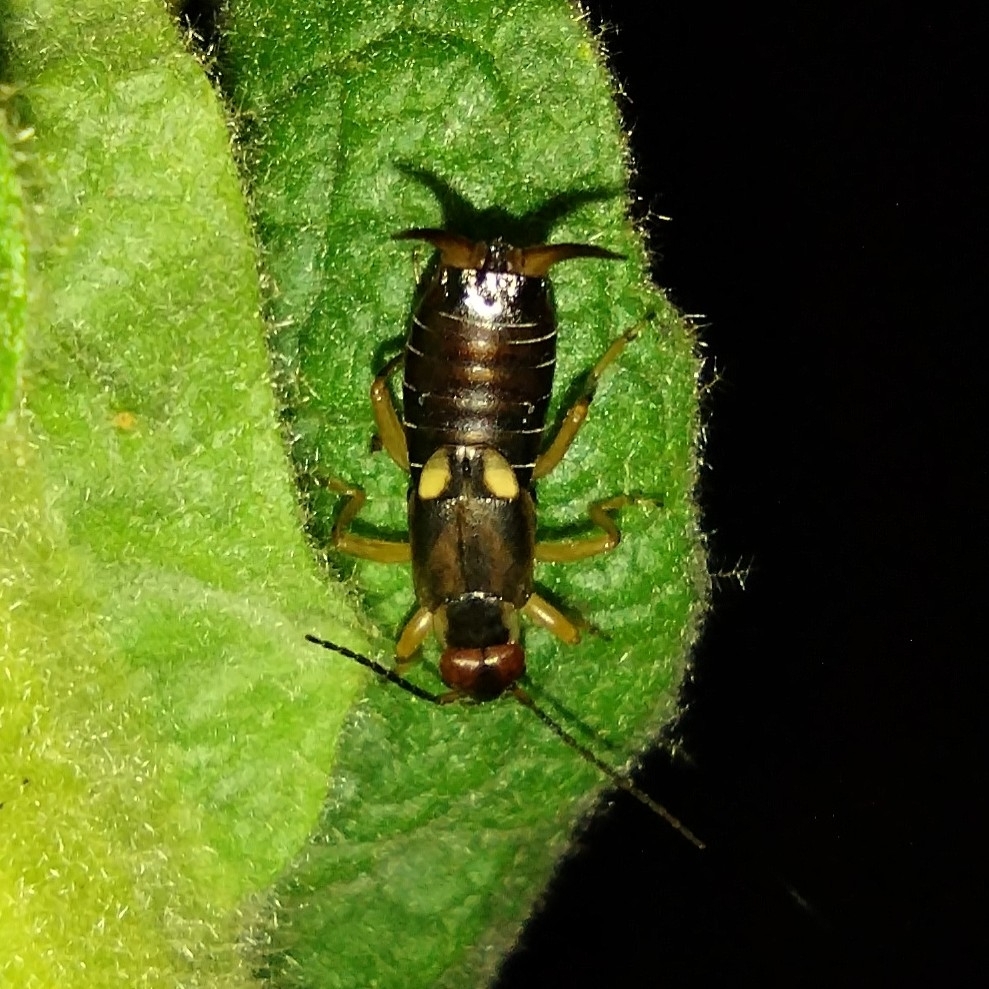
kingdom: Animalia
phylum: Arthropoda
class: Insecta
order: Dermaptera
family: Forficulidae
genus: Forficula
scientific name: Forficula
